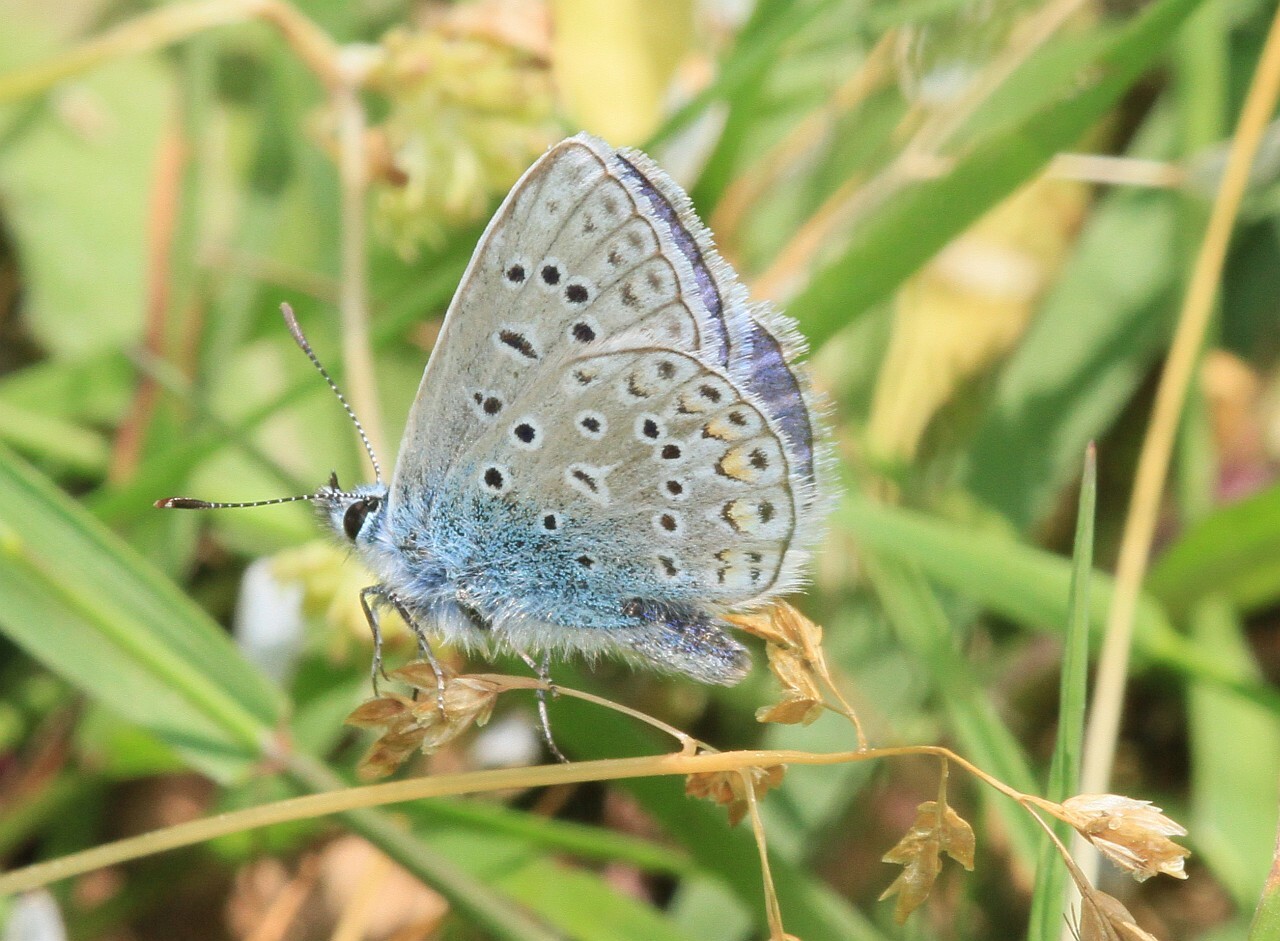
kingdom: Animalia
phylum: Arthropoda
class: Insecta
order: Lepidoptera
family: Lycaenidae
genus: Polyommatus
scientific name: Polyommatus icarus
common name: Common blue
